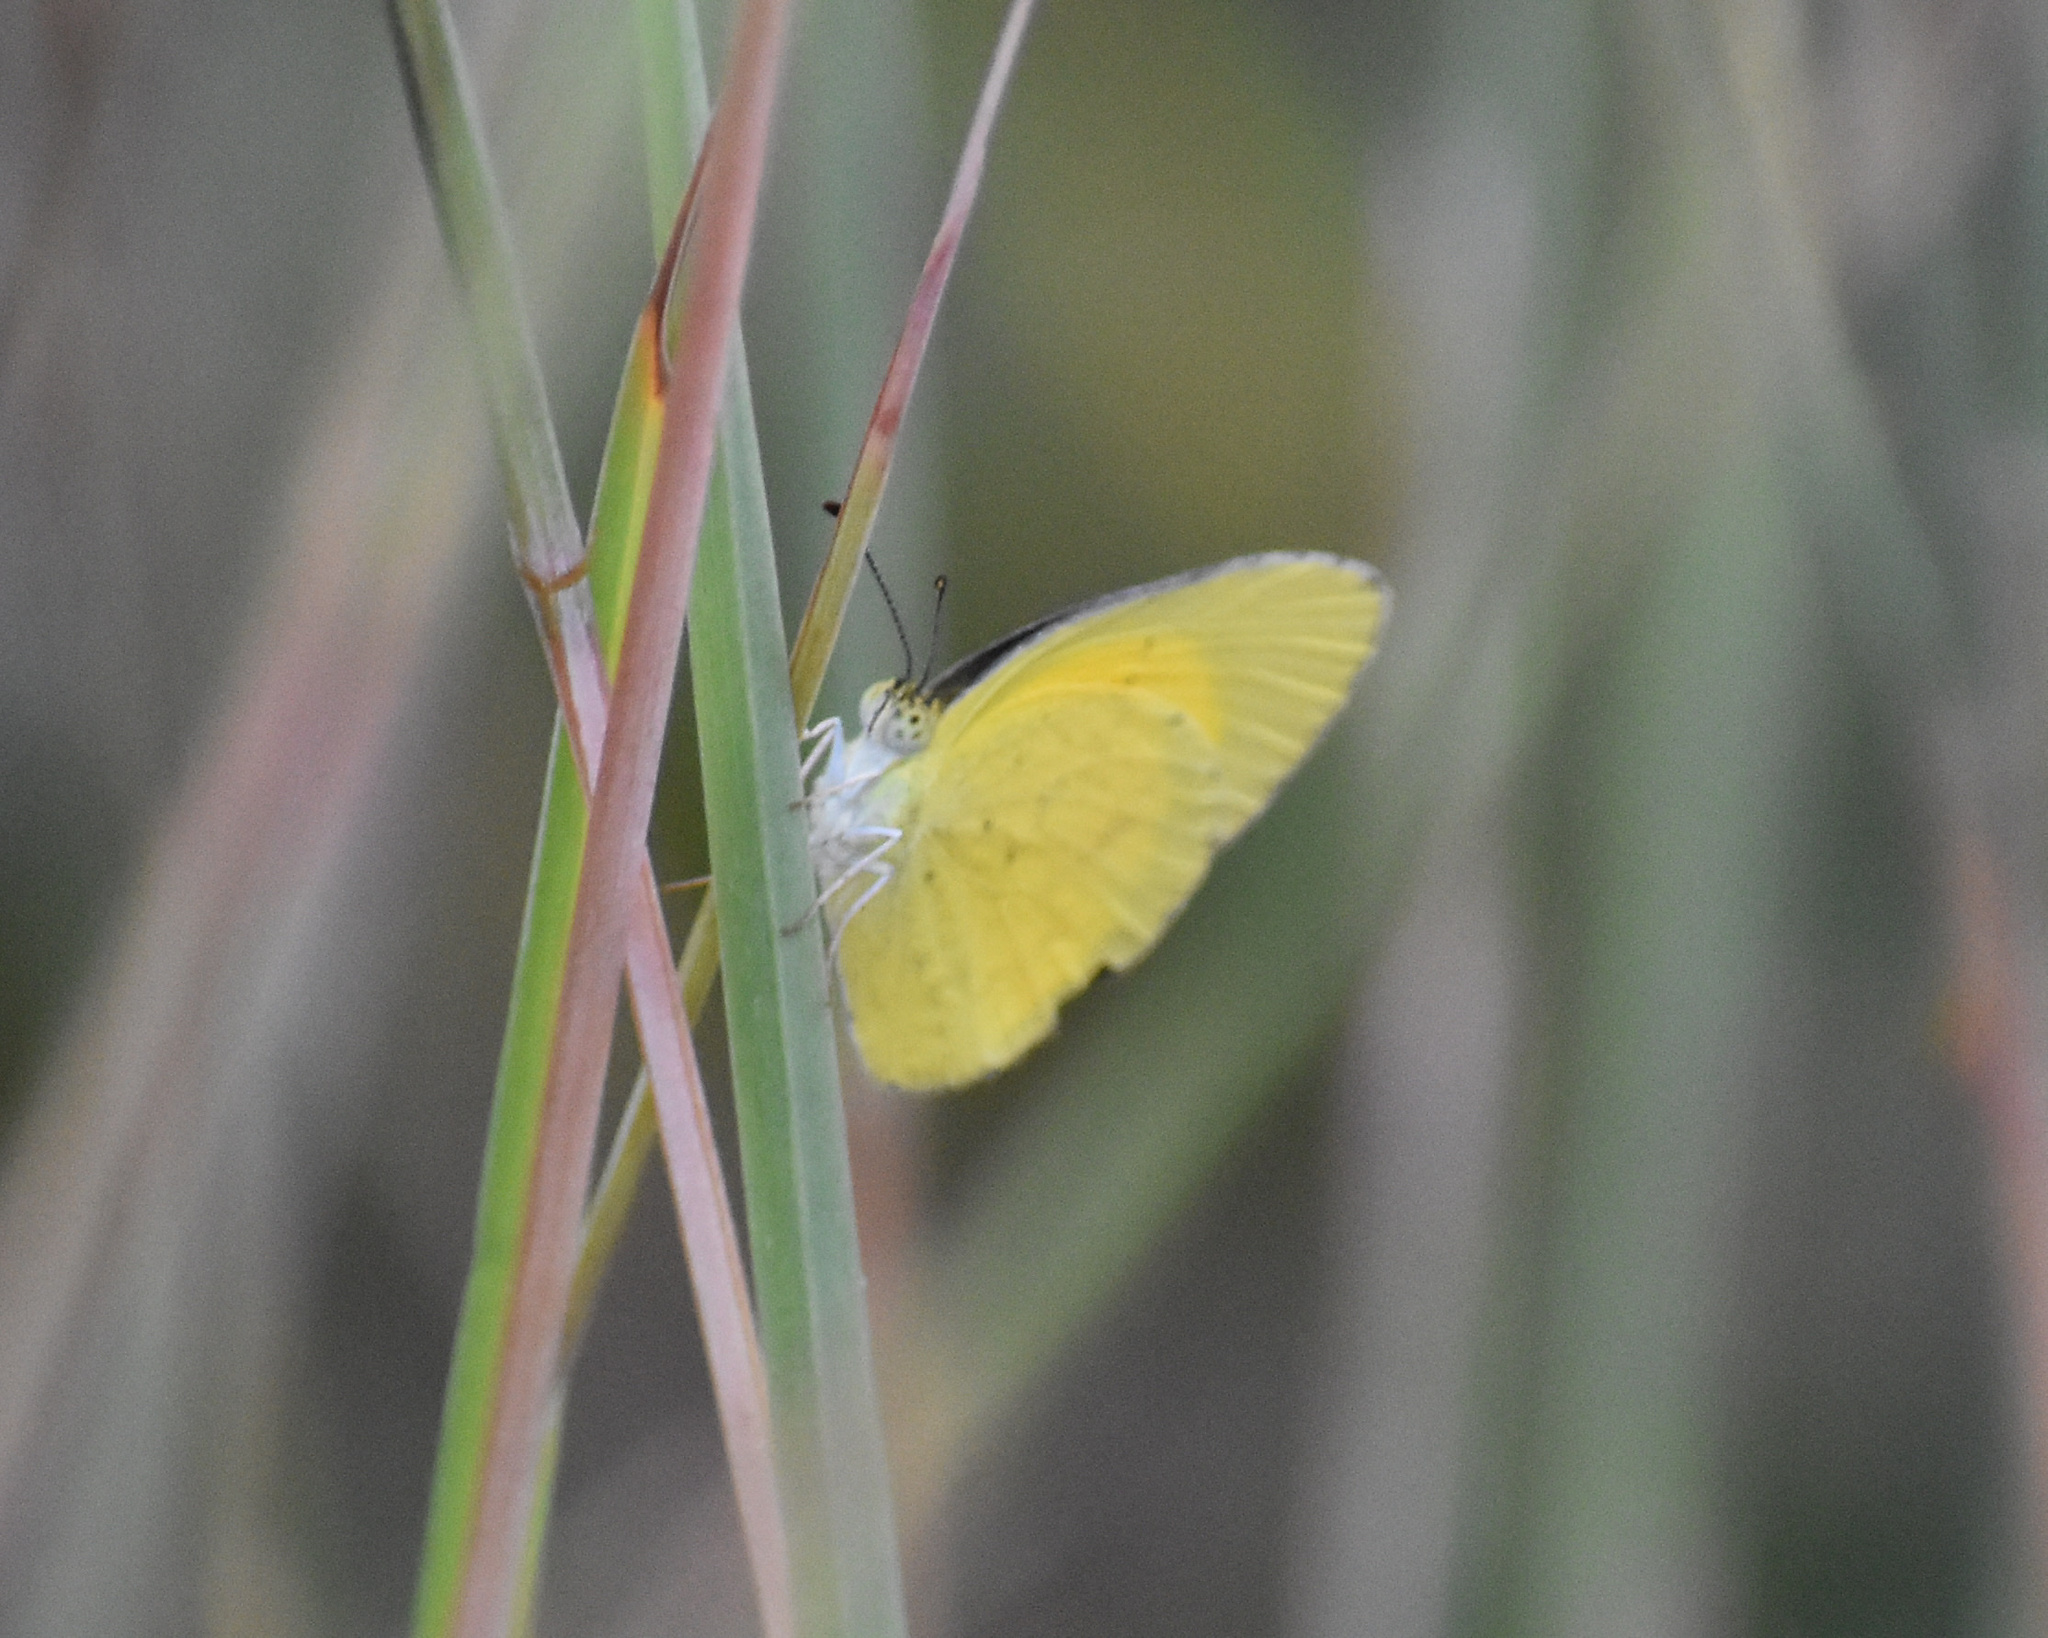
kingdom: Animalia
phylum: Arthropoda
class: Insecta
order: Lepidoptera
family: Pieridae
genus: Eurema
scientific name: Eurema brigitta
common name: Small grass yellow
